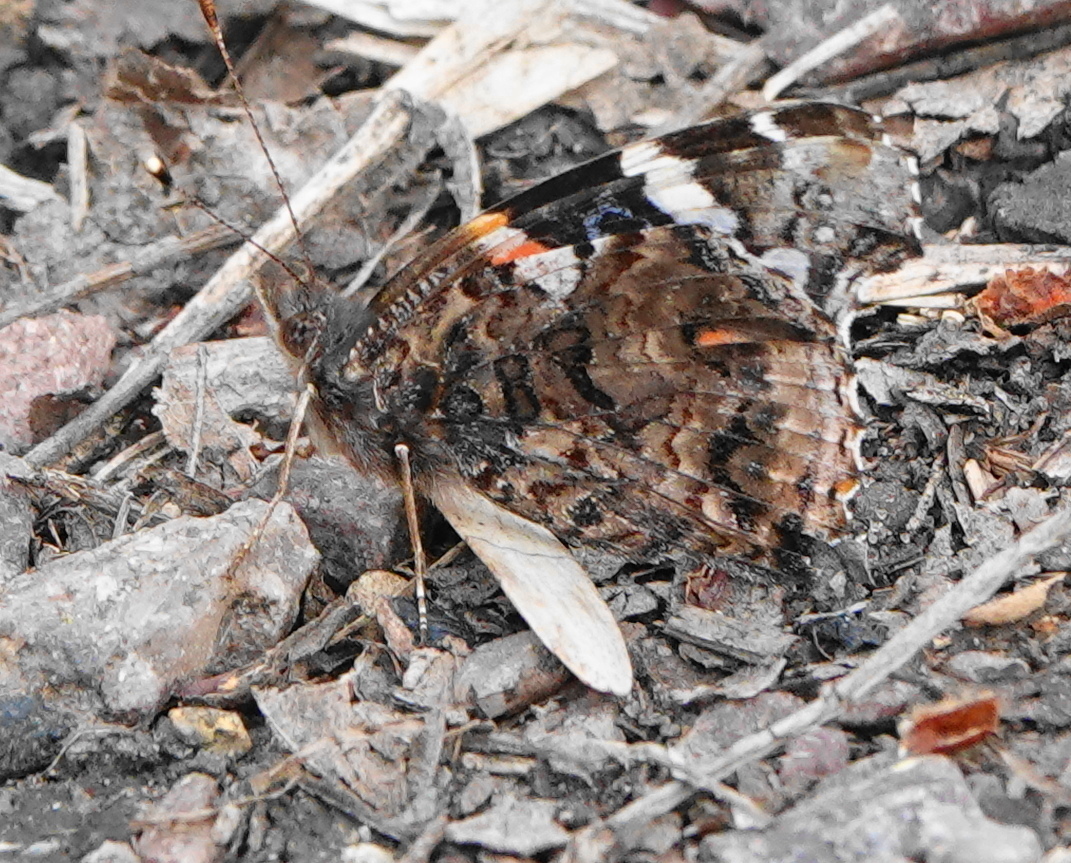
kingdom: Animalia
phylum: Arthropoda
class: Insecta
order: Lepidoptera
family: Nymphalidae
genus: Vanessa
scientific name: Vanessa atalanta
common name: Red admiral
